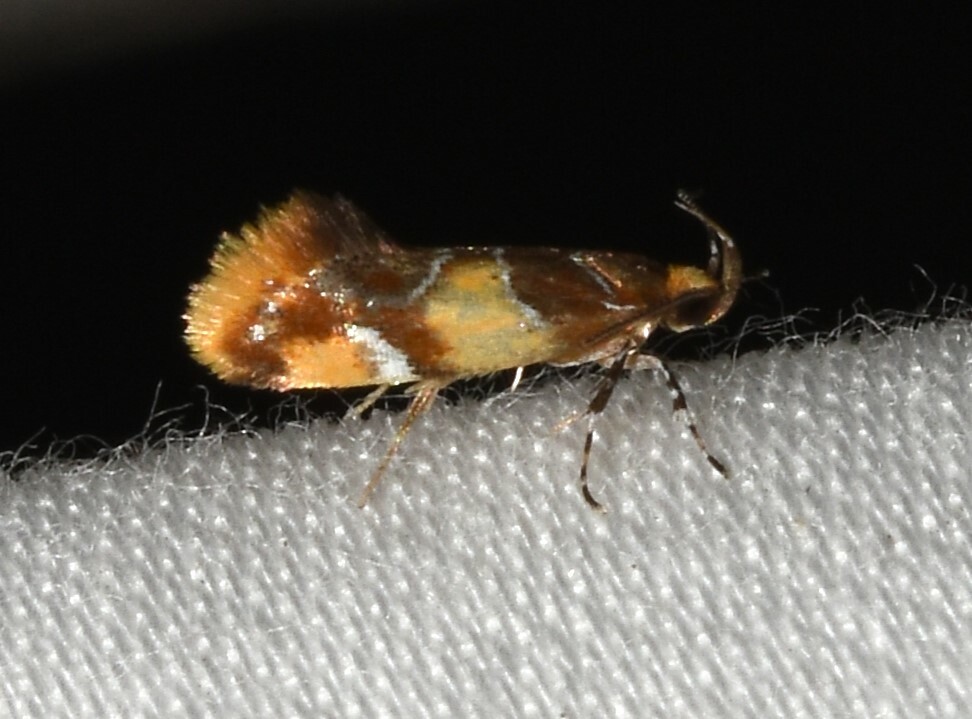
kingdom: Animalia
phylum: Arthropoda
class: Insecta
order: Lepidoptera
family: Oecophoridae
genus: Callima
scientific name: Callima argenticinctella
